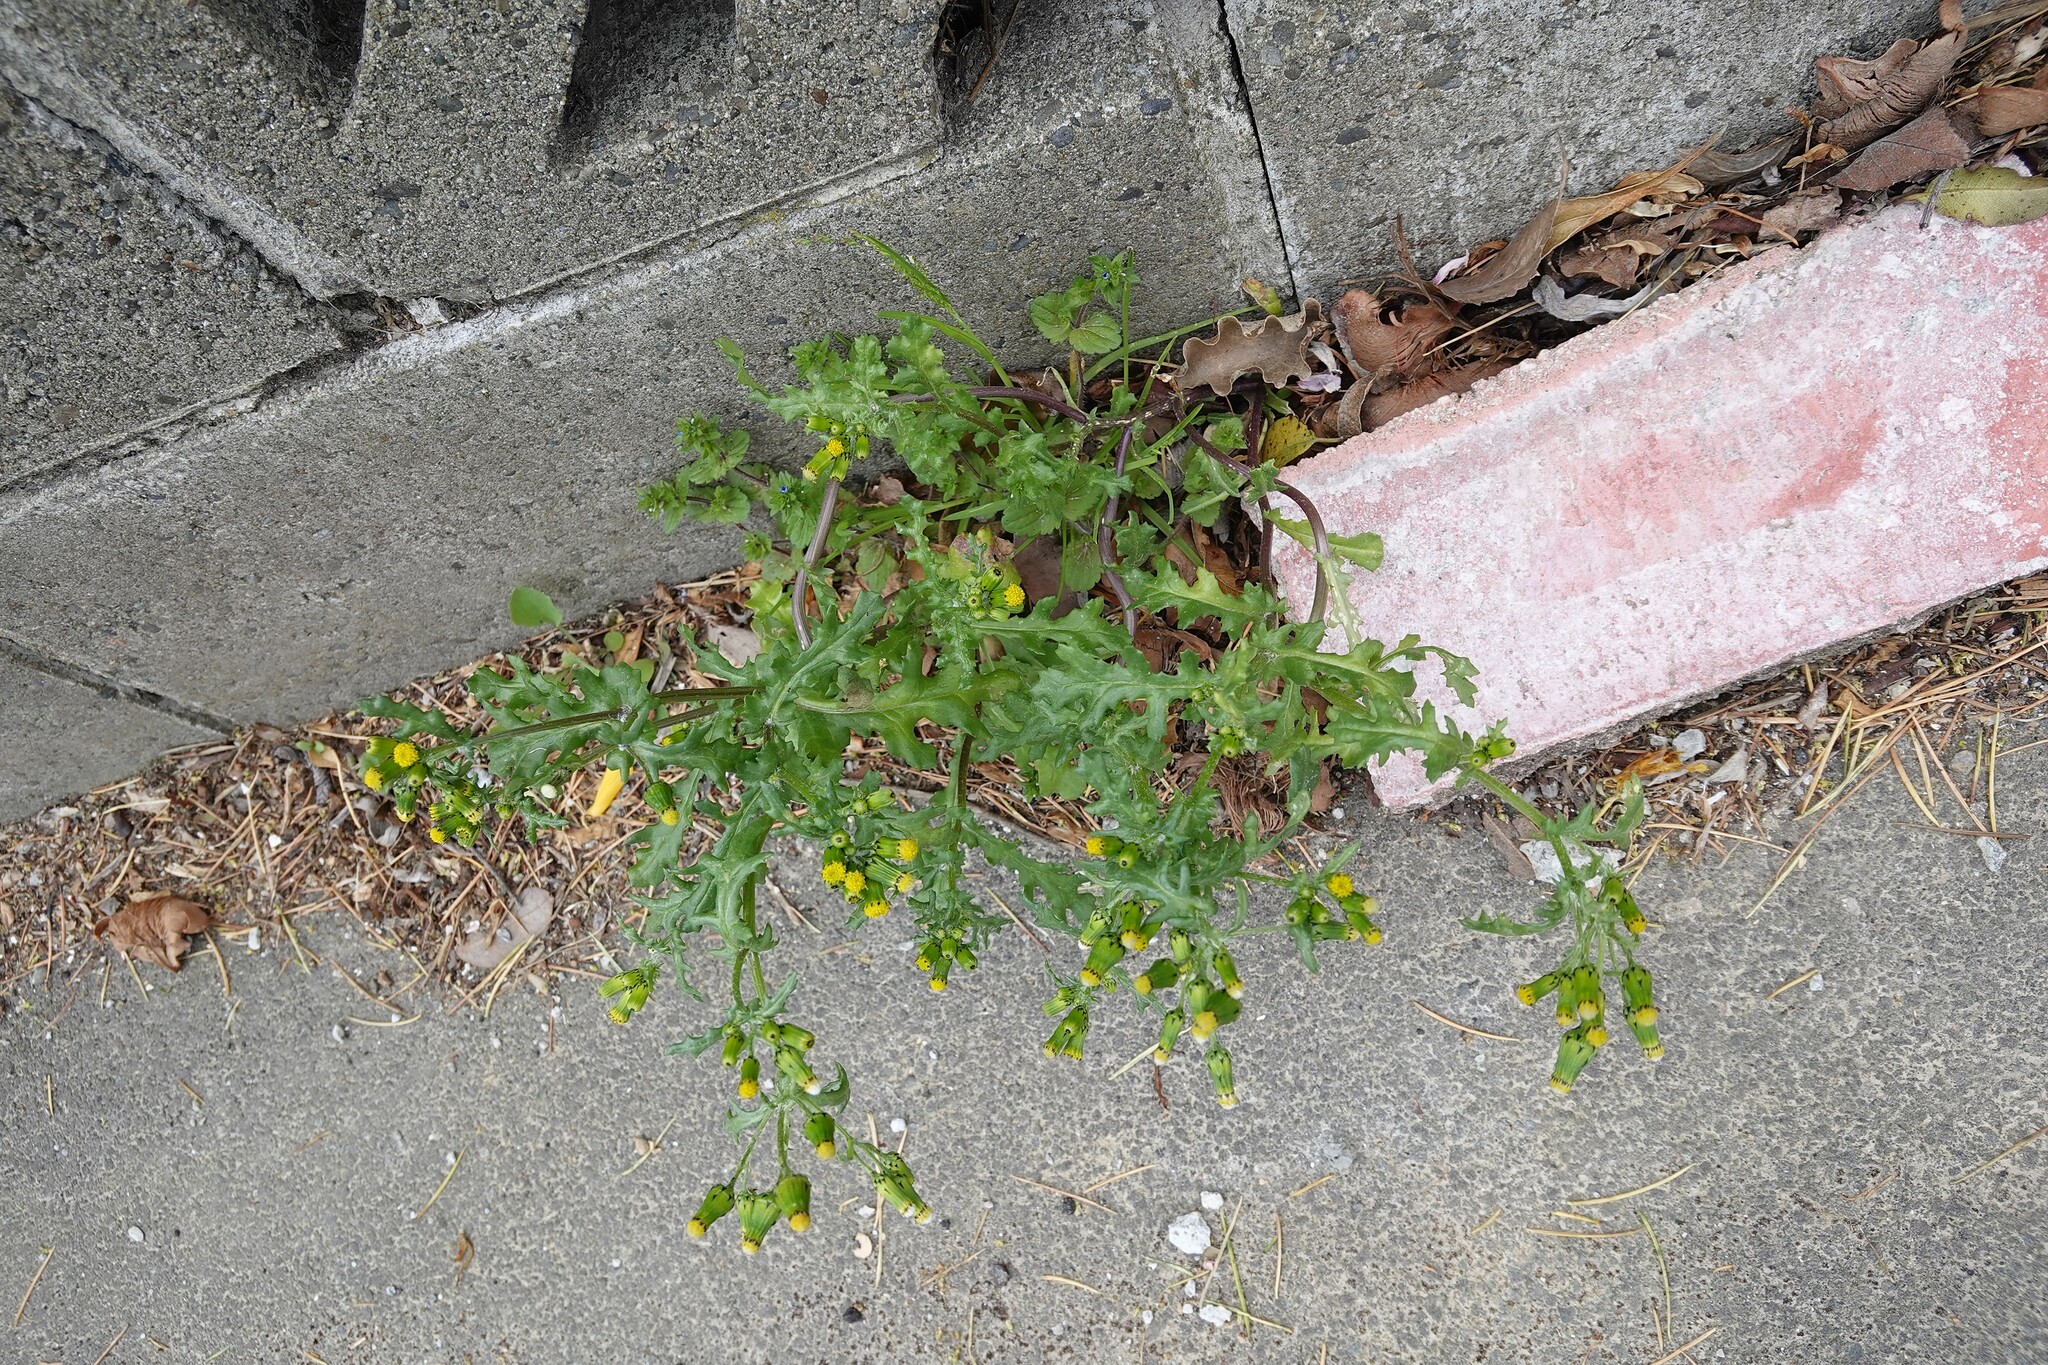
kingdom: Plantae
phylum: Tracheophyta
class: Magnoliopsida
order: Asterales
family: Asteraceae
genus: Senecio
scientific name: Senecio vulgaris
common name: Old-man-in-the-spring
